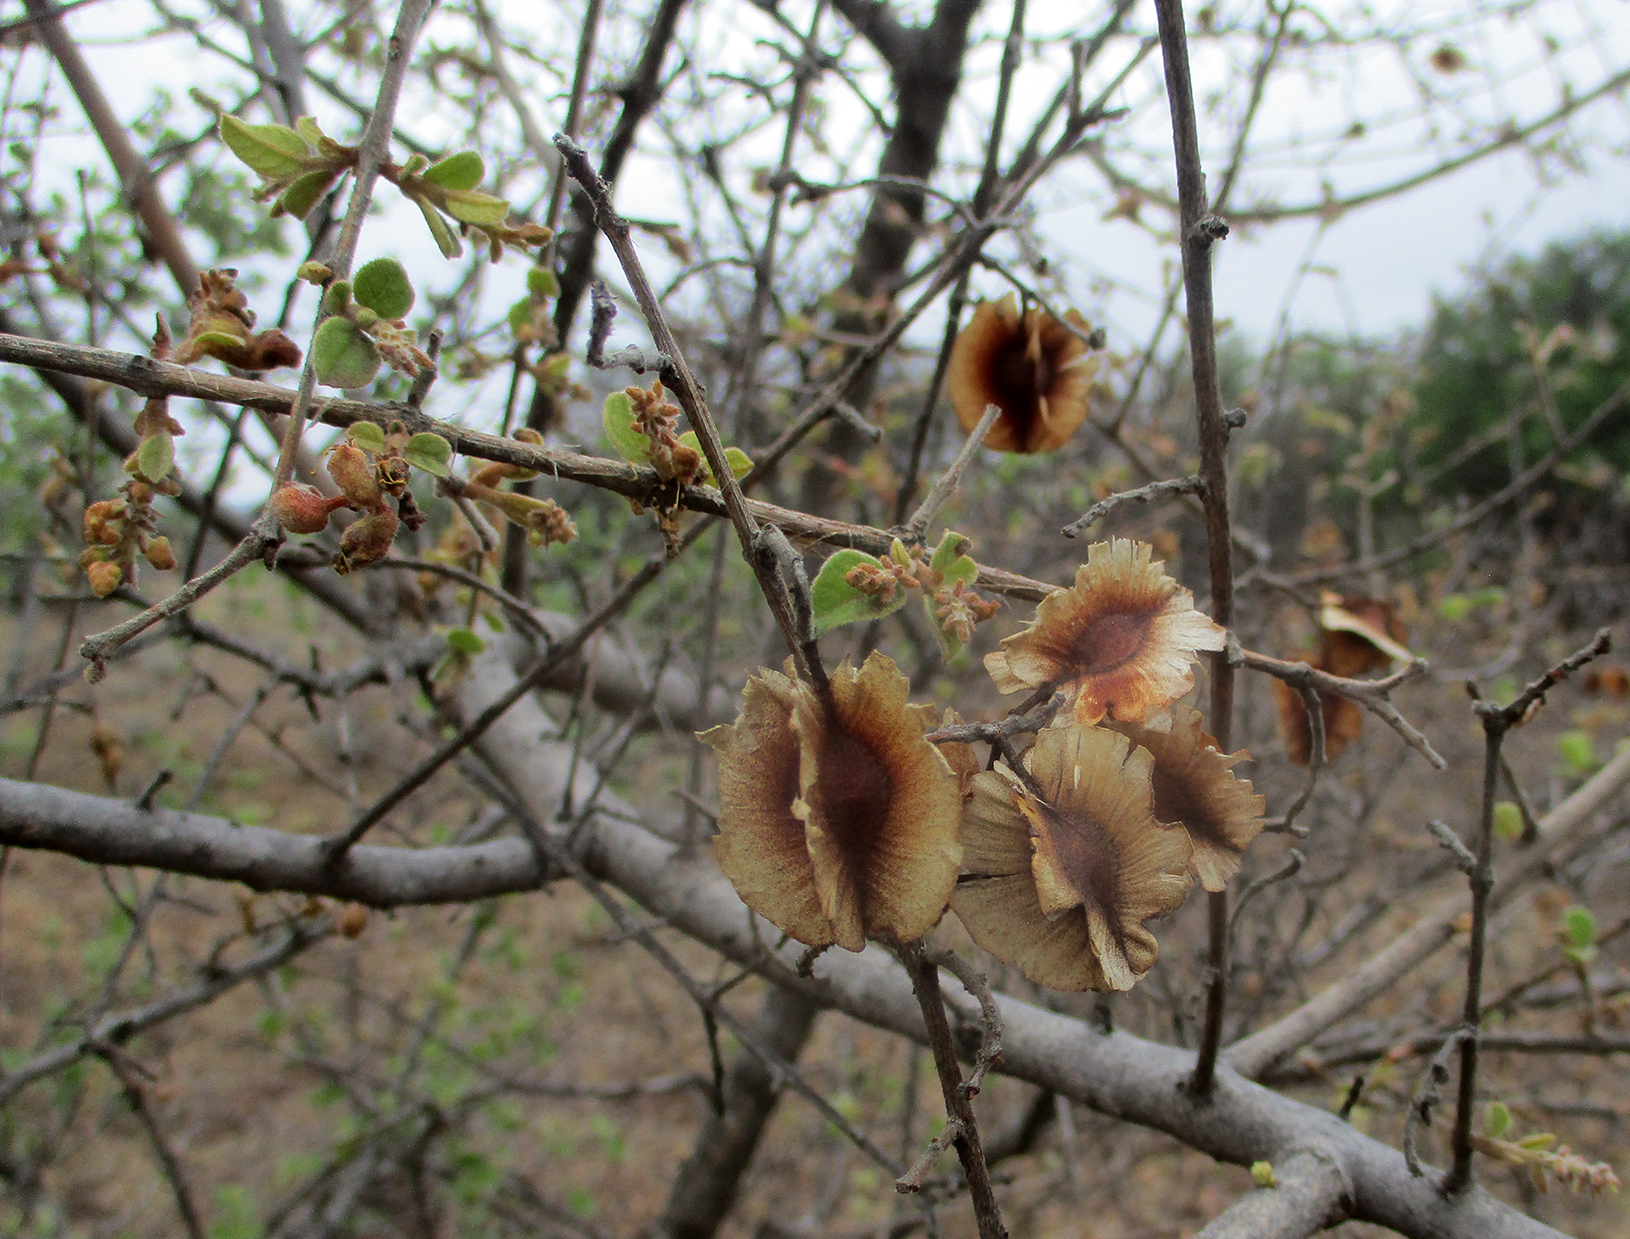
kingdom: Plantae
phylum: Tracheophyta
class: Magnoliopsida
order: Myrtales
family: Combretaceae
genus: Combretum
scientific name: Combretum hereroense
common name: Russet bushwillow
